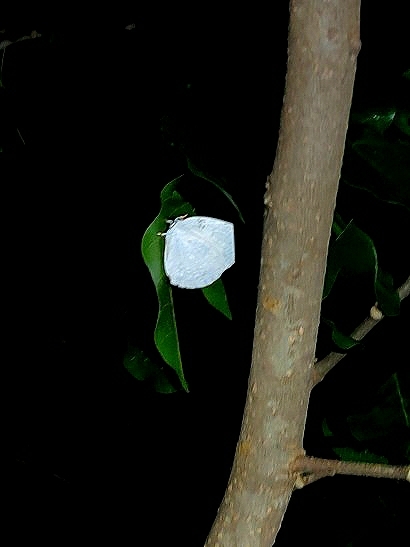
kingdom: Animalia
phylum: Arthropoda
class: Insecta
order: Lepidoptera
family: Lycaenidae
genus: Curetis
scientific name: Curetis thetis
